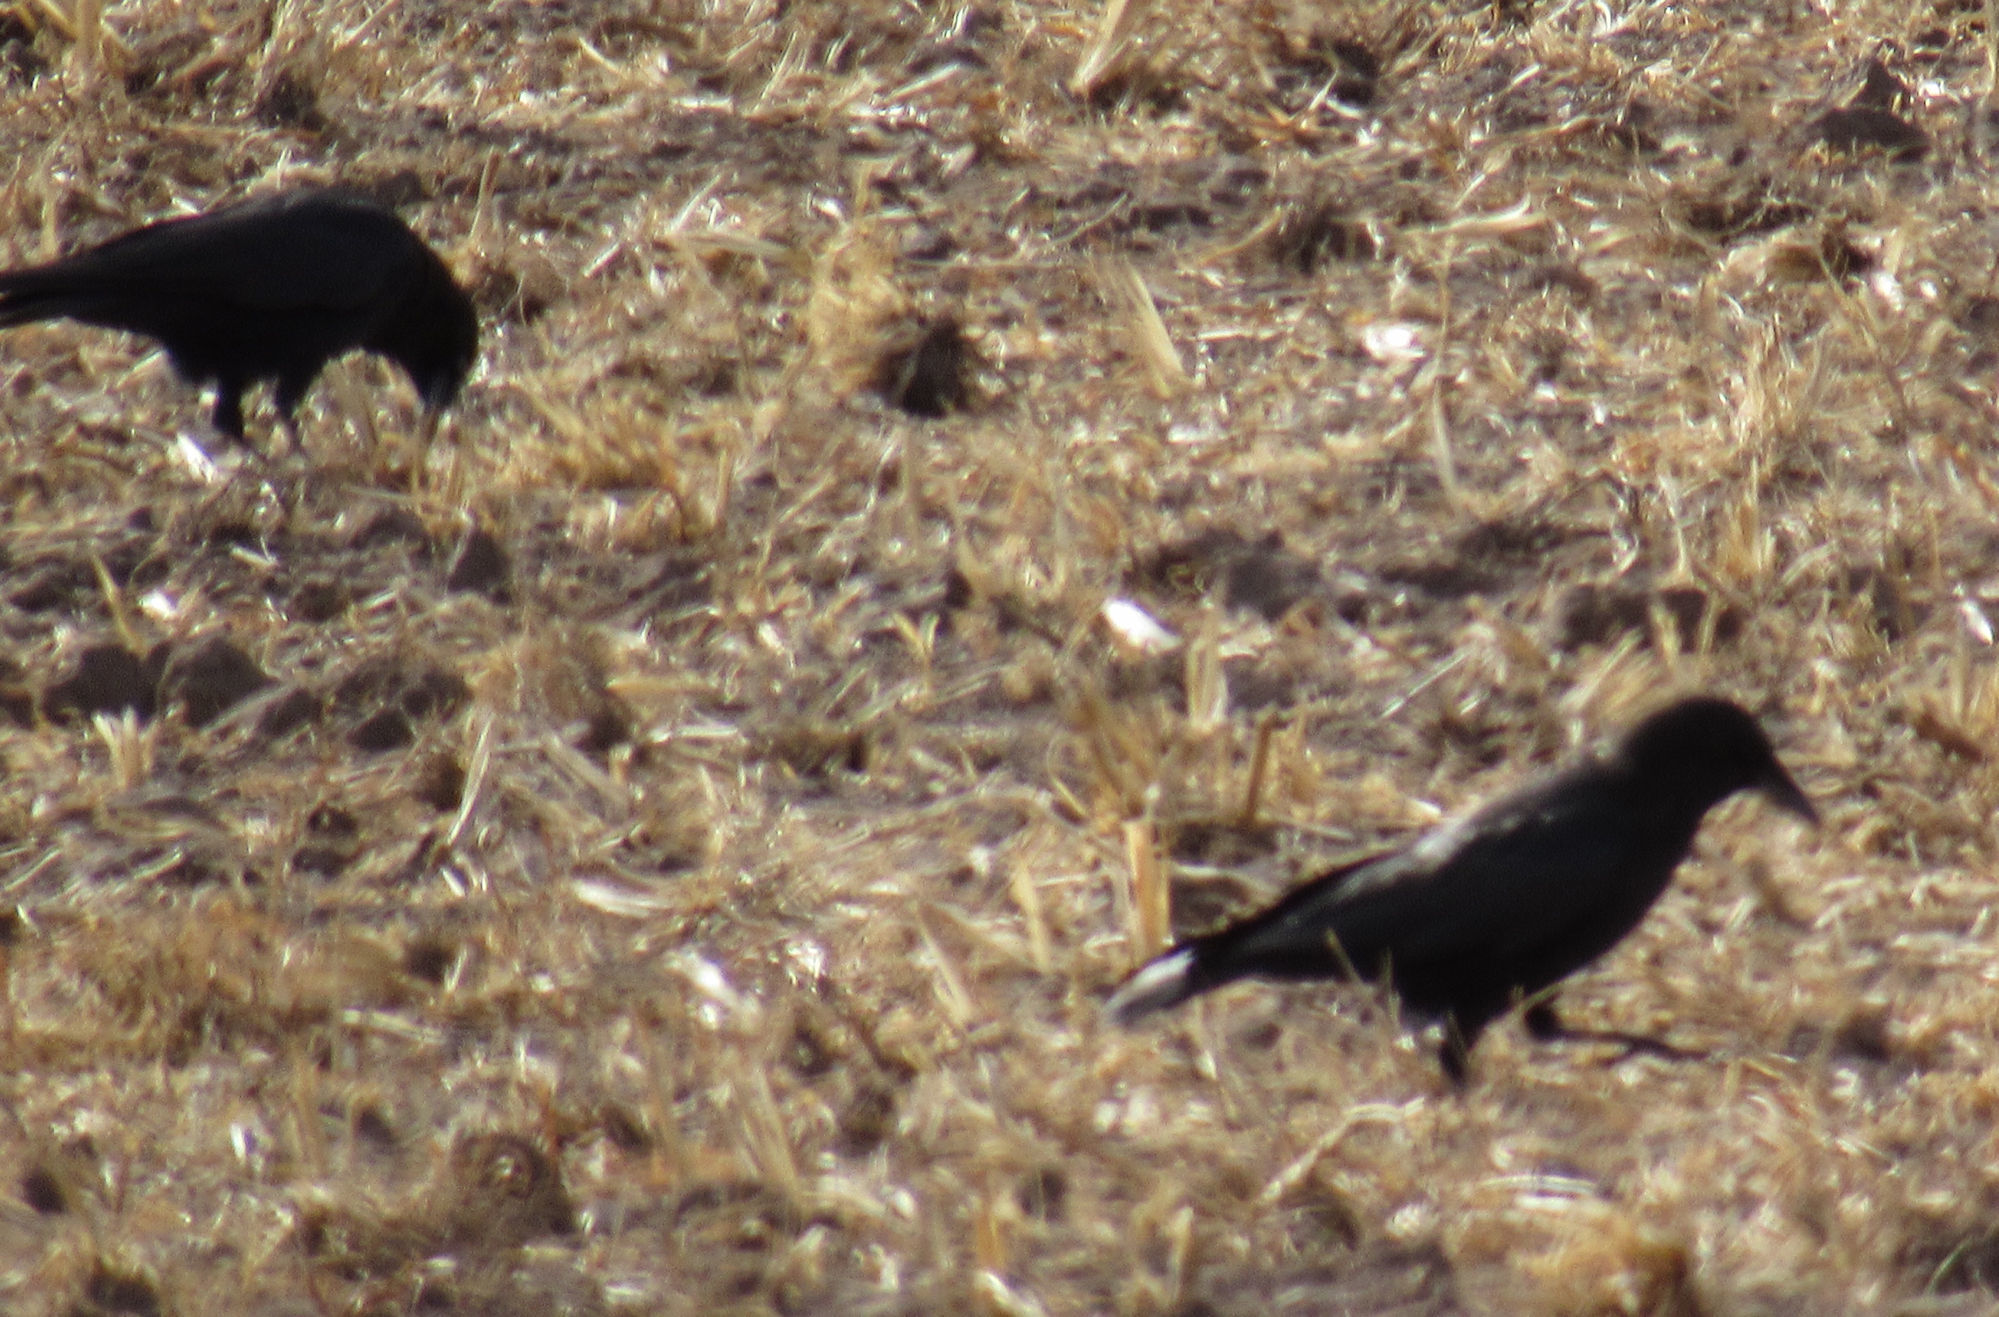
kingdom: Animalia
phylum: Chordata
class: Aves
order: Passeriformes
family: Corvidae
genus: Corvus
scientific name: Corvus brachyrhynchos
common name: American crow
